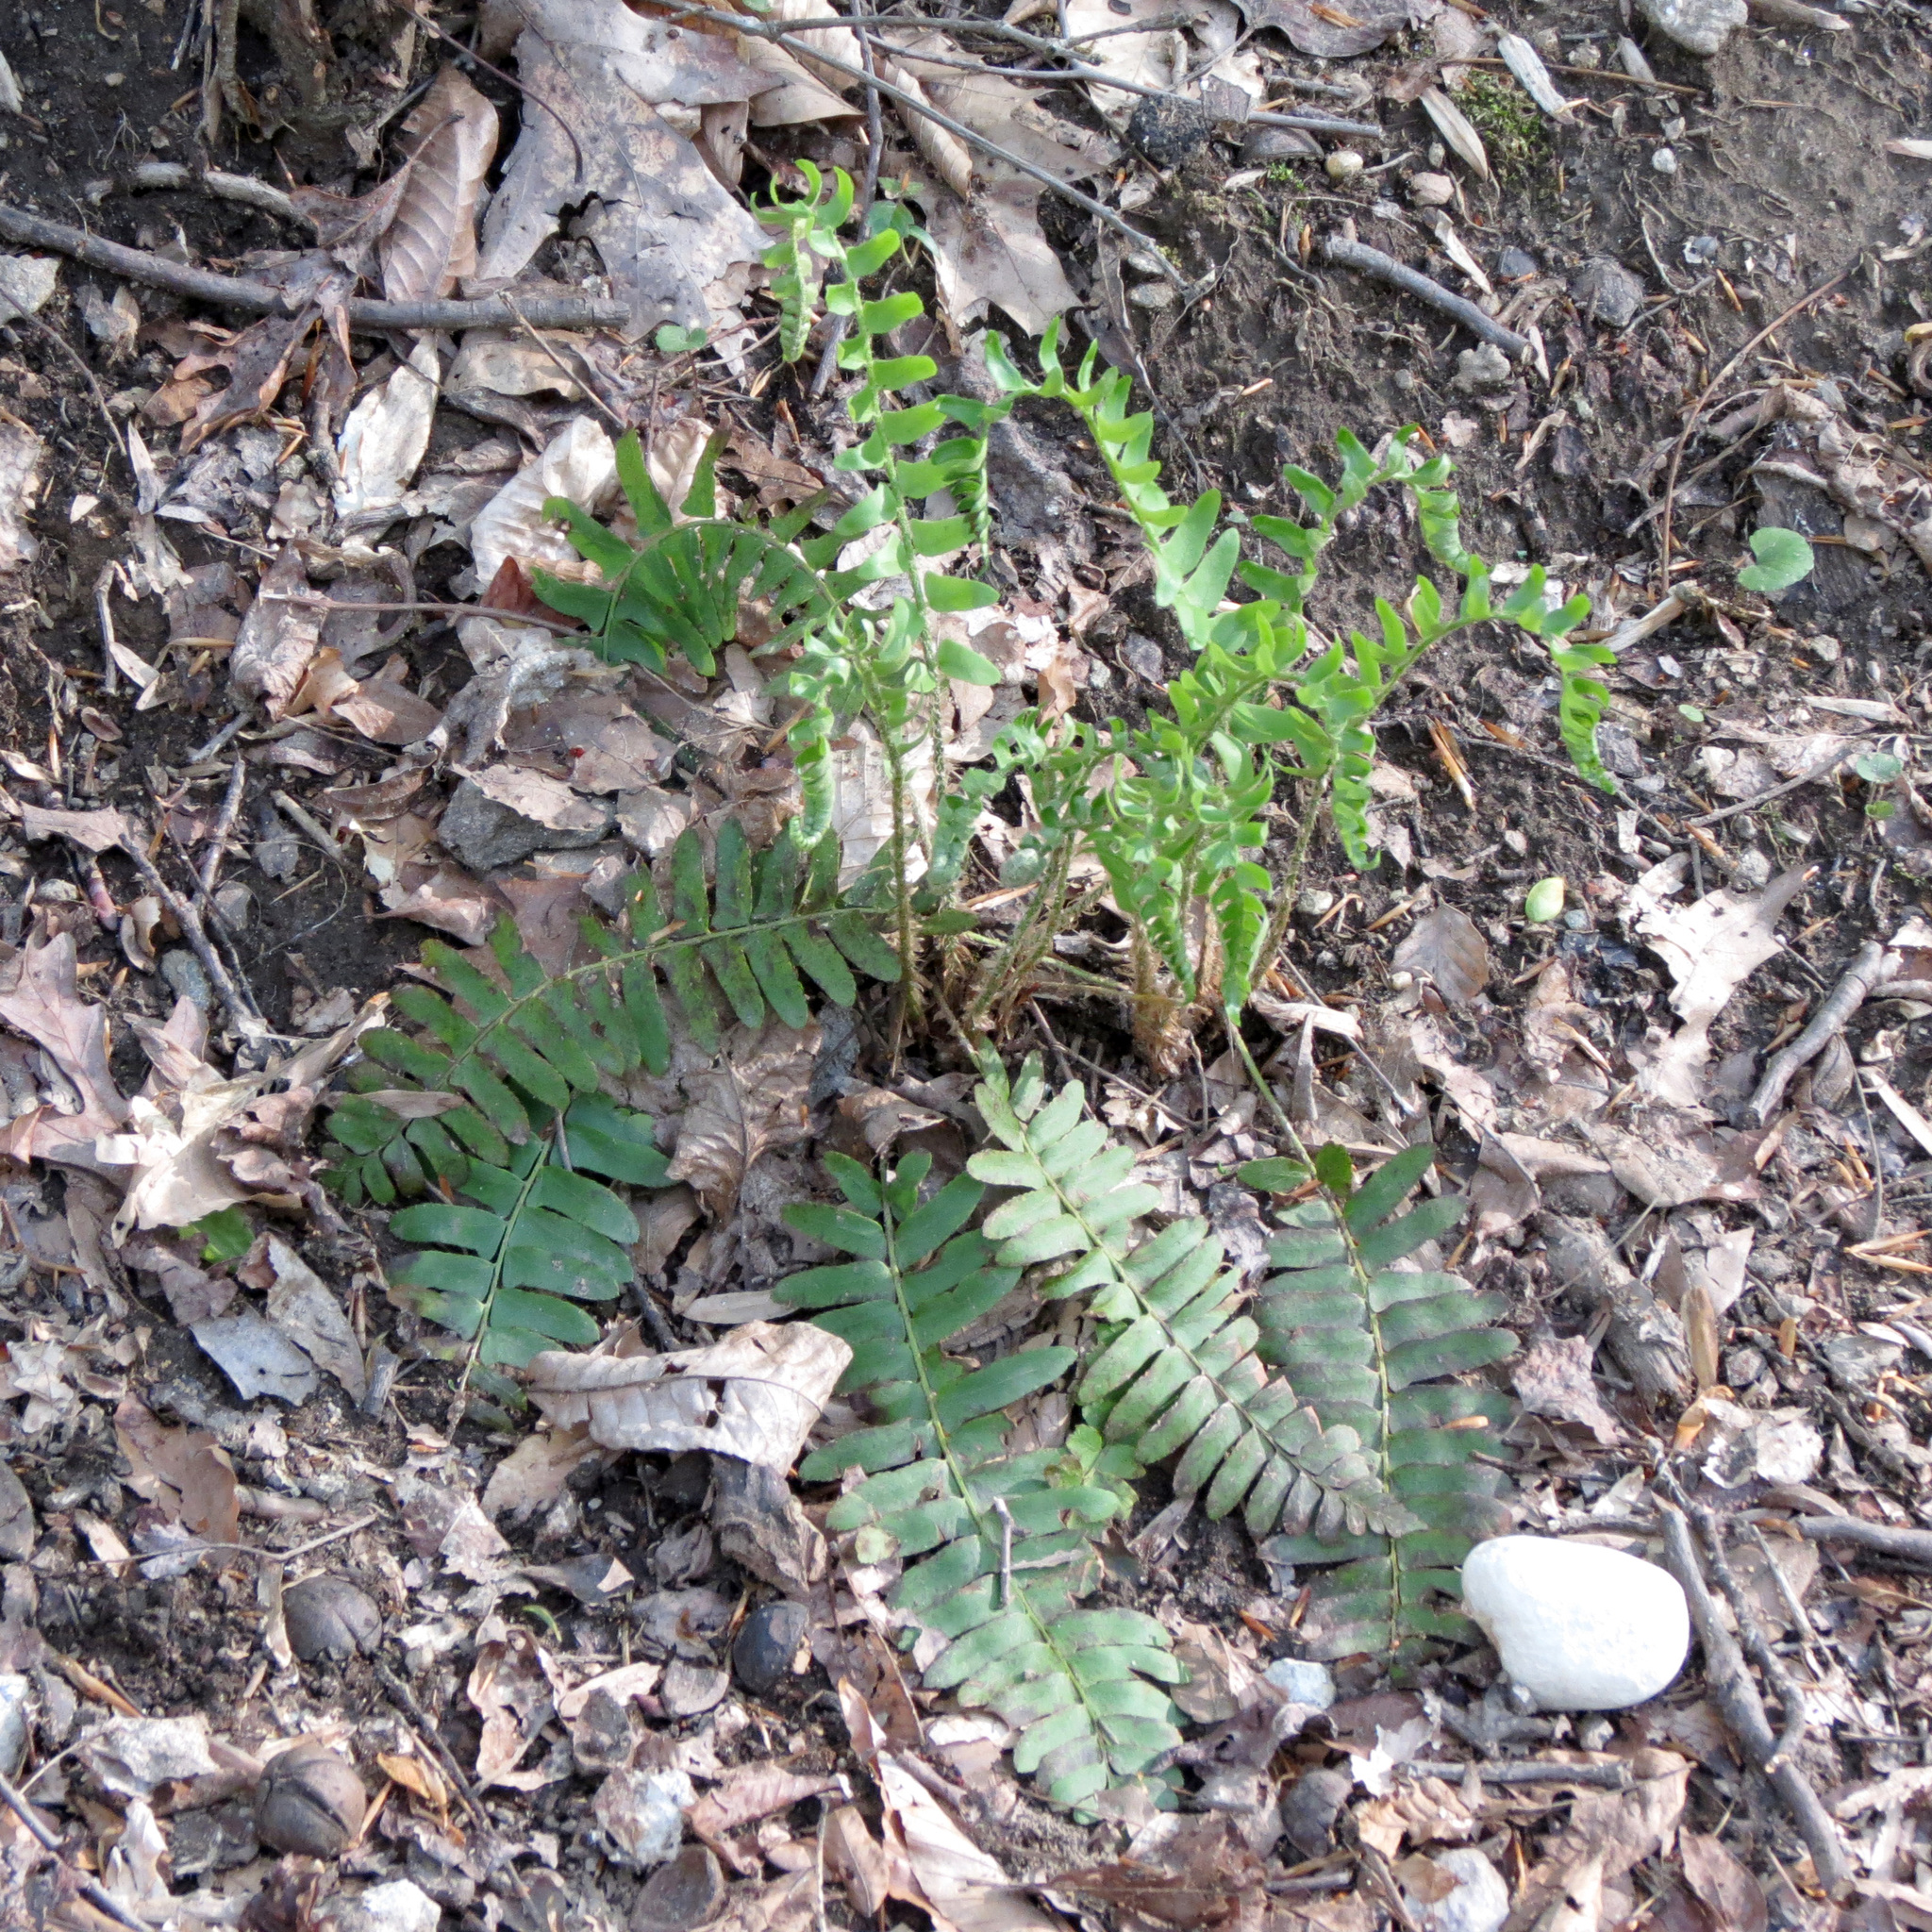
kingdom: Plantae
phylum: Tracheophyta
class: Polypodiopsida
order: Polypodiales
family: Dryopteridaceae
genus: Polystichum
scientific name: Polystichum acrostichoides
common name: Christmas fern
